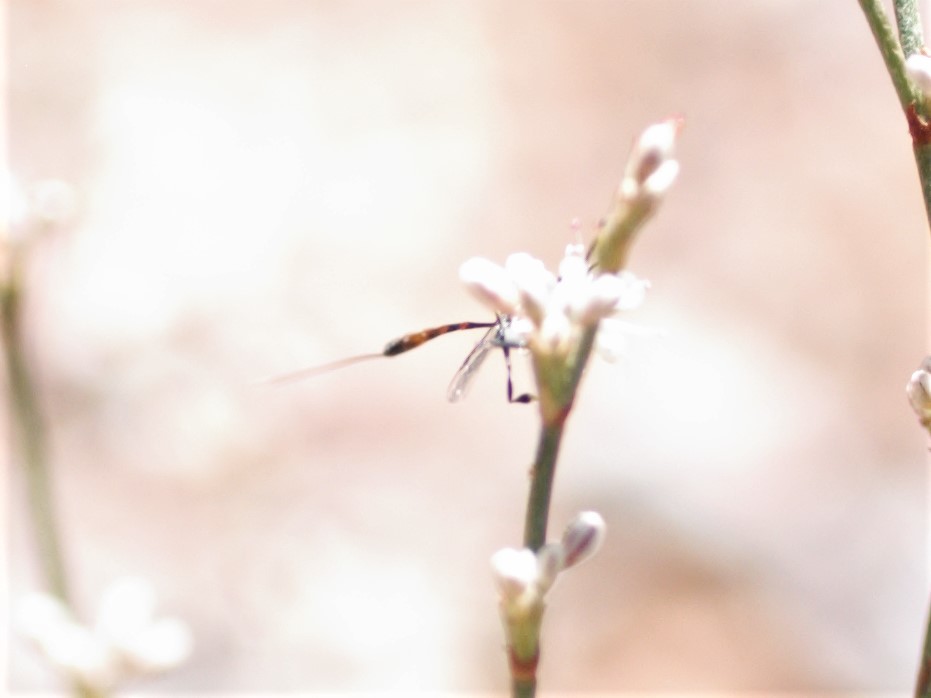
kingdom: Animalia
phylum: Arthropoda
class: Insecta
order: Hymenoptera
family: Gasteruptiidae
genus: Gasteruption
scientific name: Gasteruption
